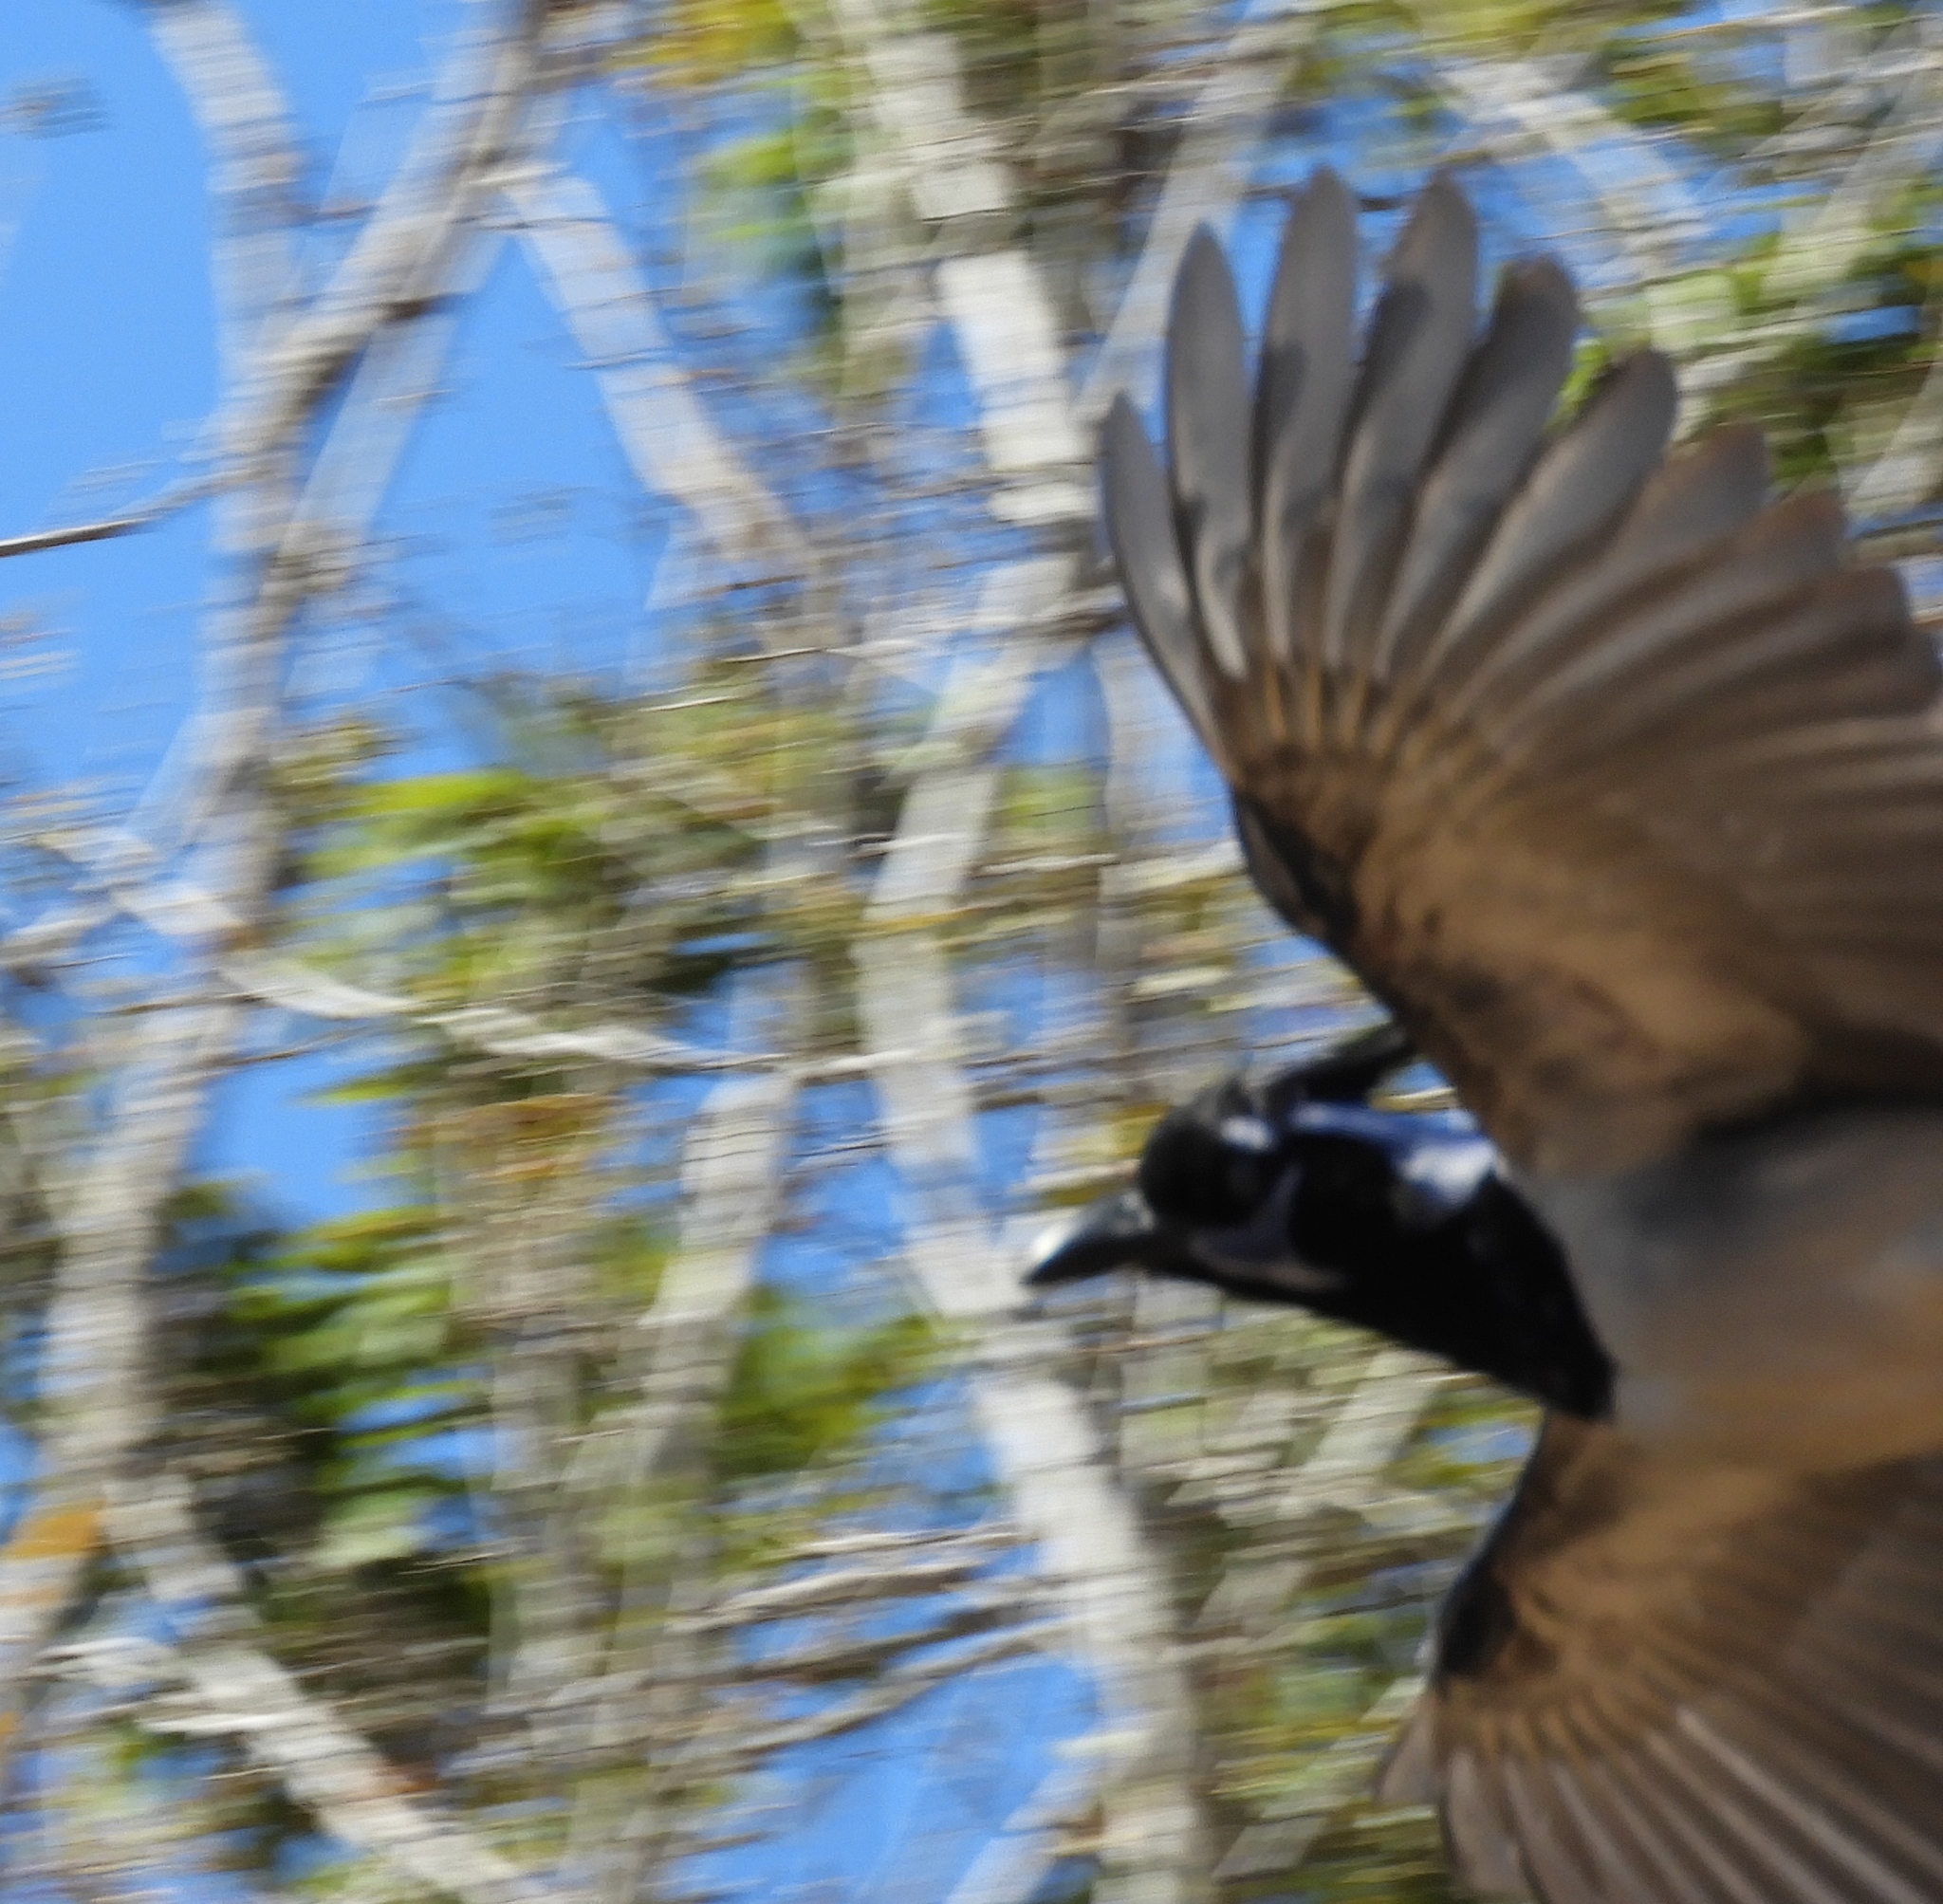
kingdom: Animalia
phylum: Chordata
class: Aves
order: Passeriformes
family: Corvidae
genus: Calocitta
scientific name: Calocitta colliei
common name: Black-throated magpie-jay
